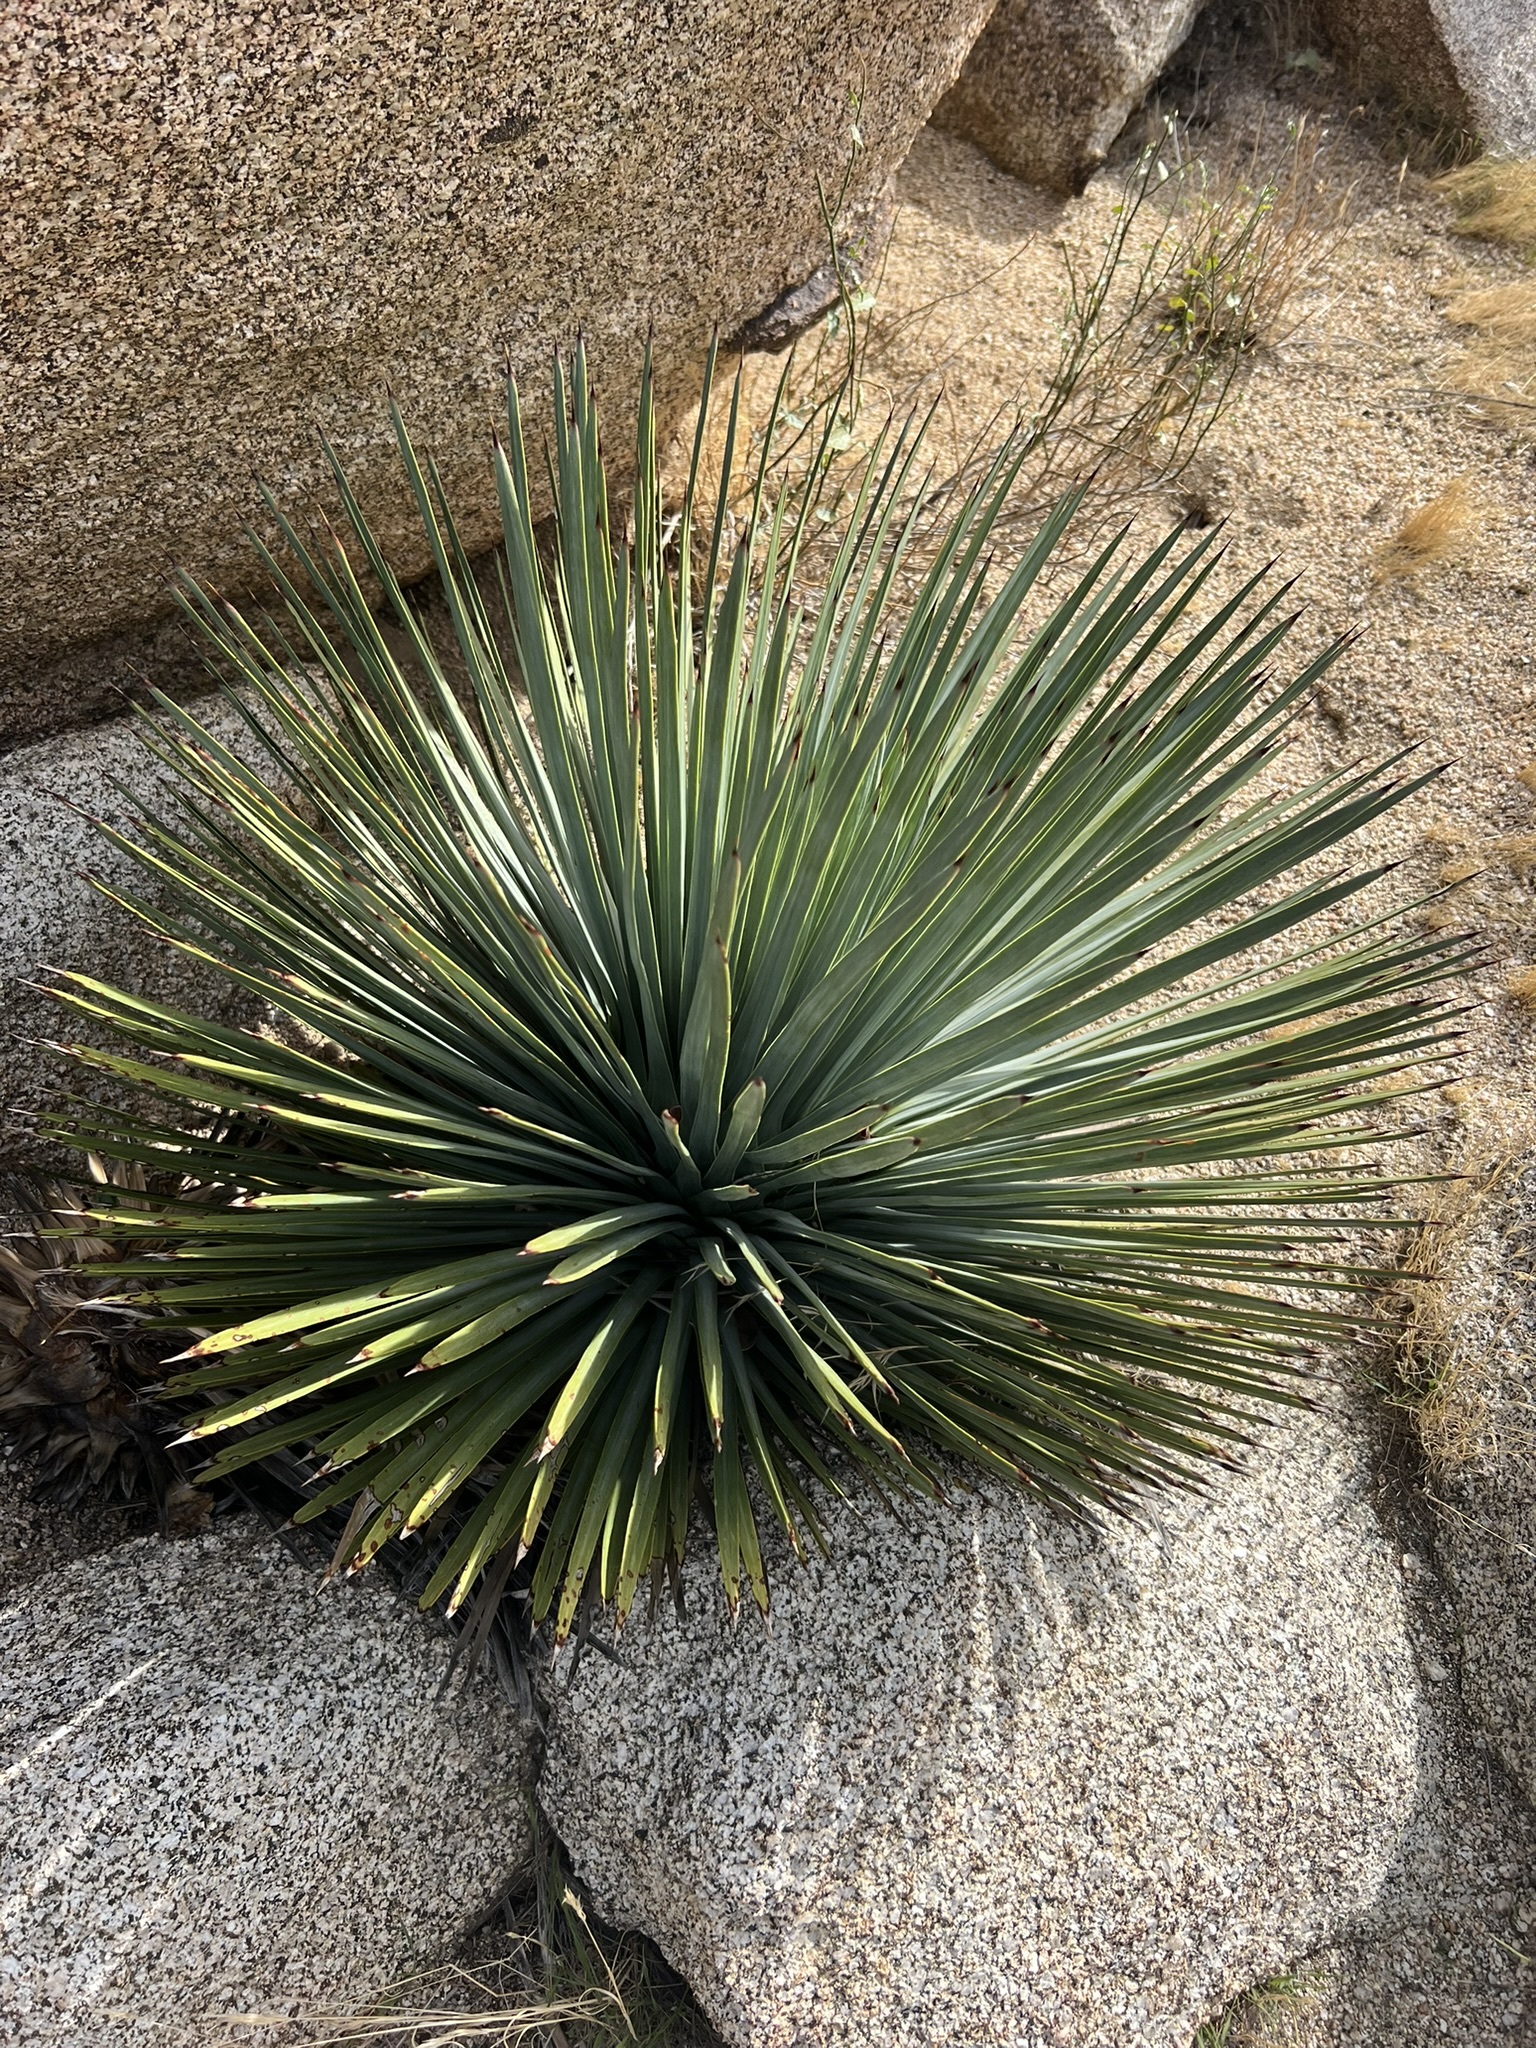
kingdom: Plantae
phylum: Tracheophyta
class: Liliopsida
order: Asparagales
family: Asparagaceae
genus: Hesperoyucca
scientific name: Hesperoyucca whipplei
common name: Our lord's-candle
